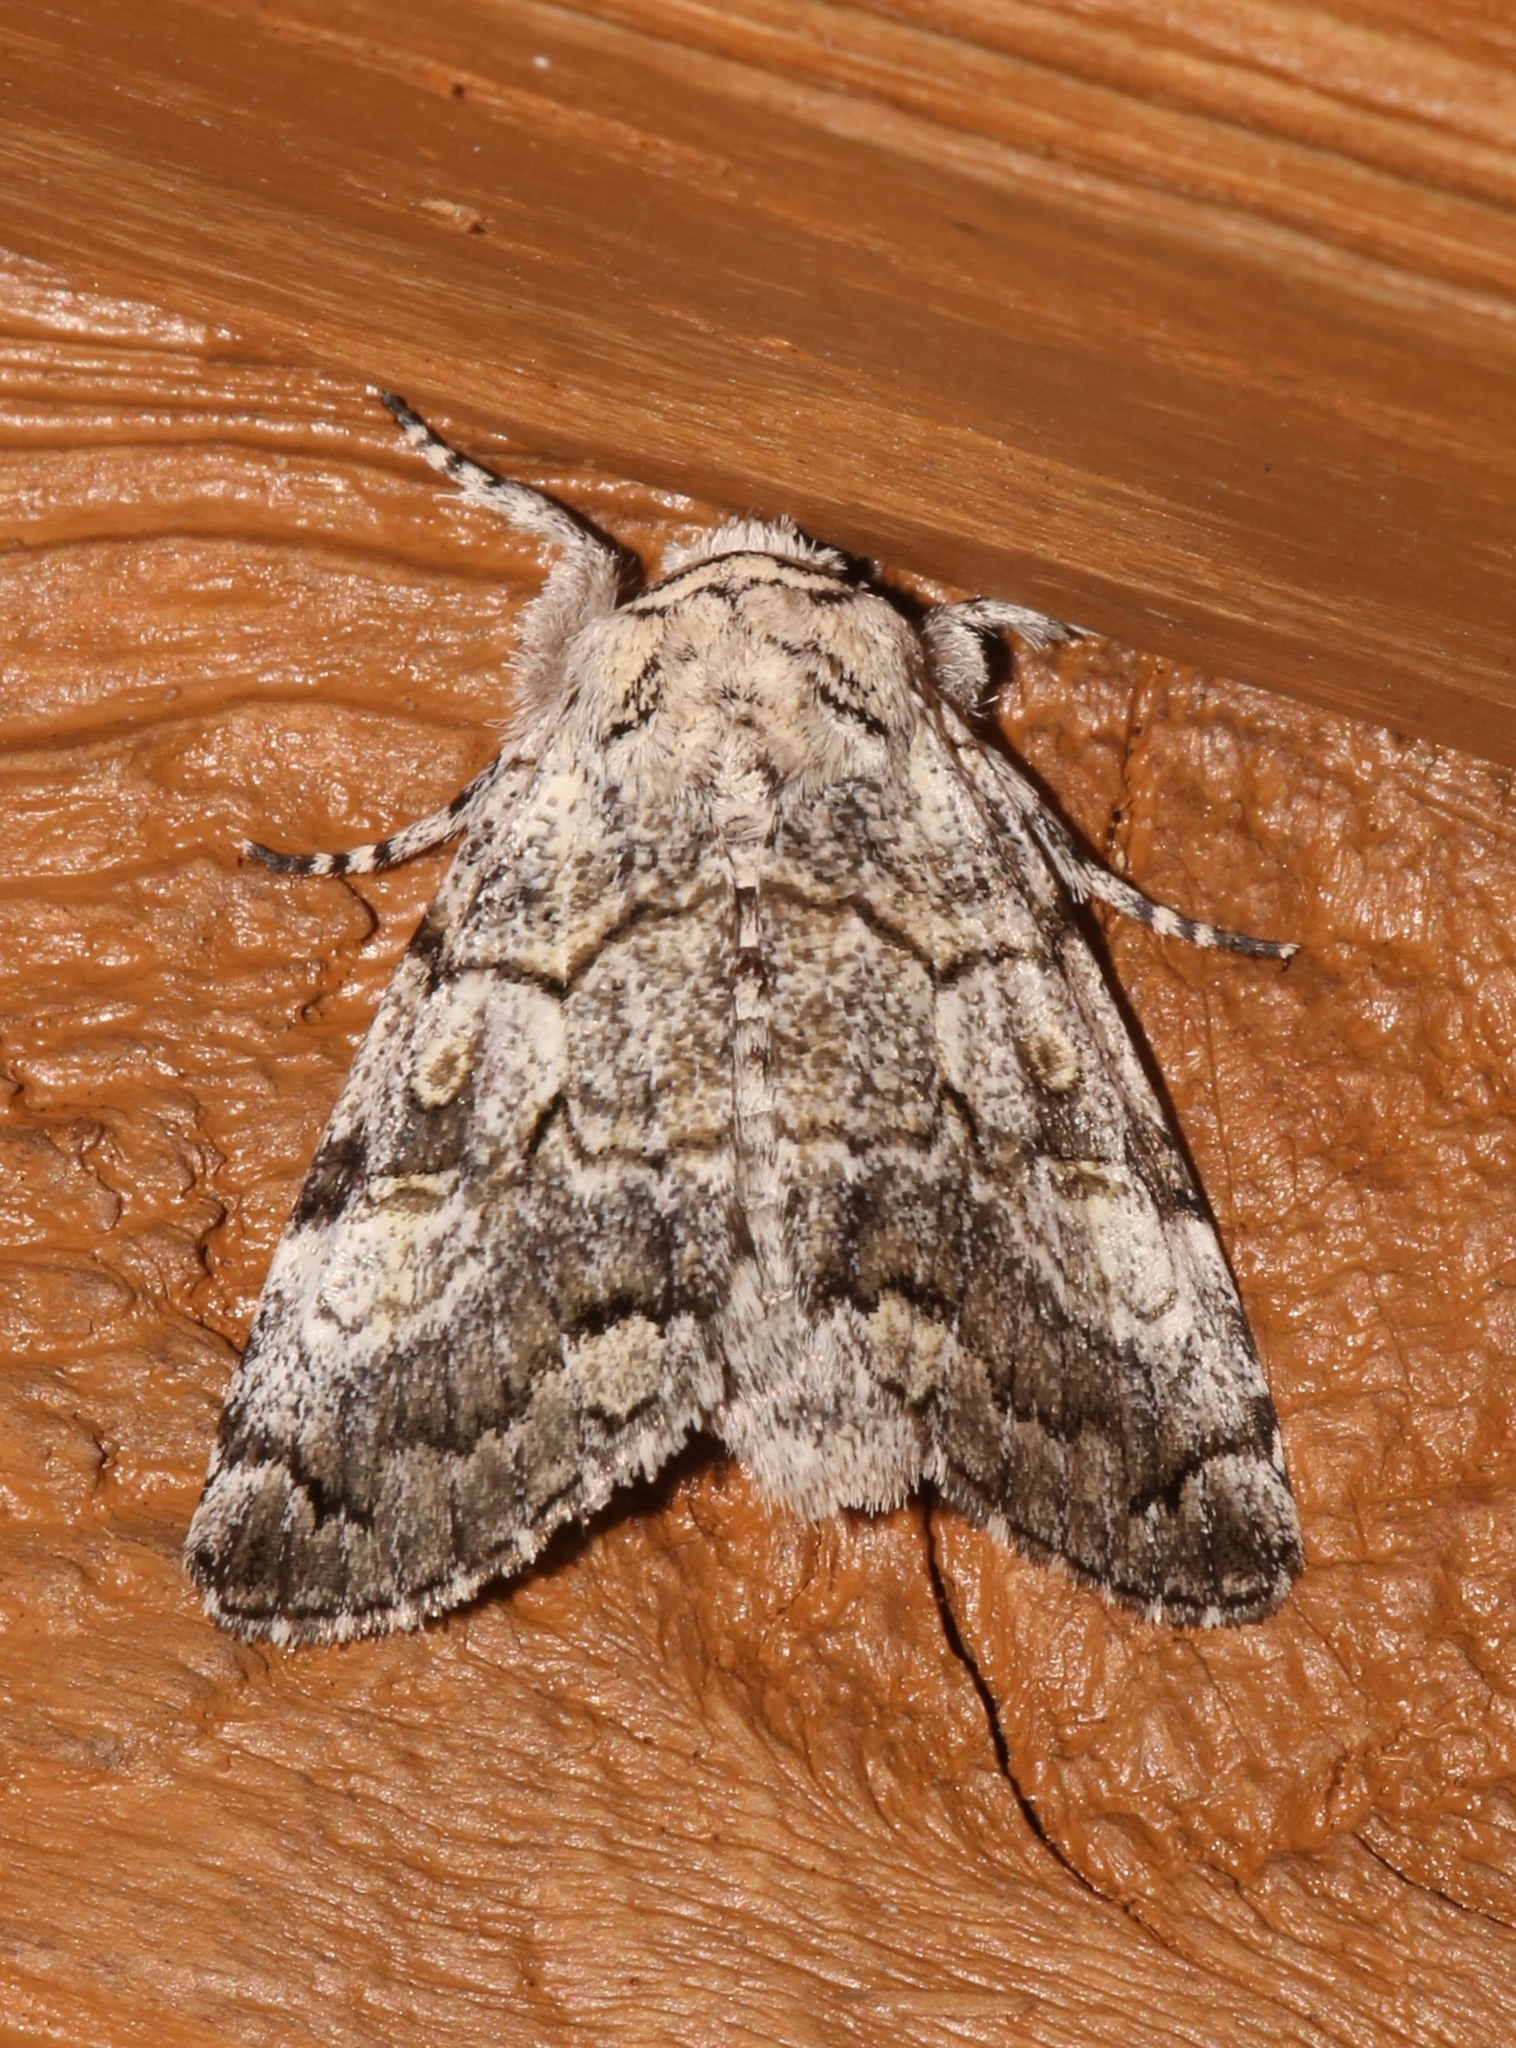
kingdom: Animalia
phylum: Arthropoda
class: Insecta
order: Lepidoptera
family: Noctuidae
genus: Charadra
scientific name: Charadra deridens
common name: Marbled tuffet
